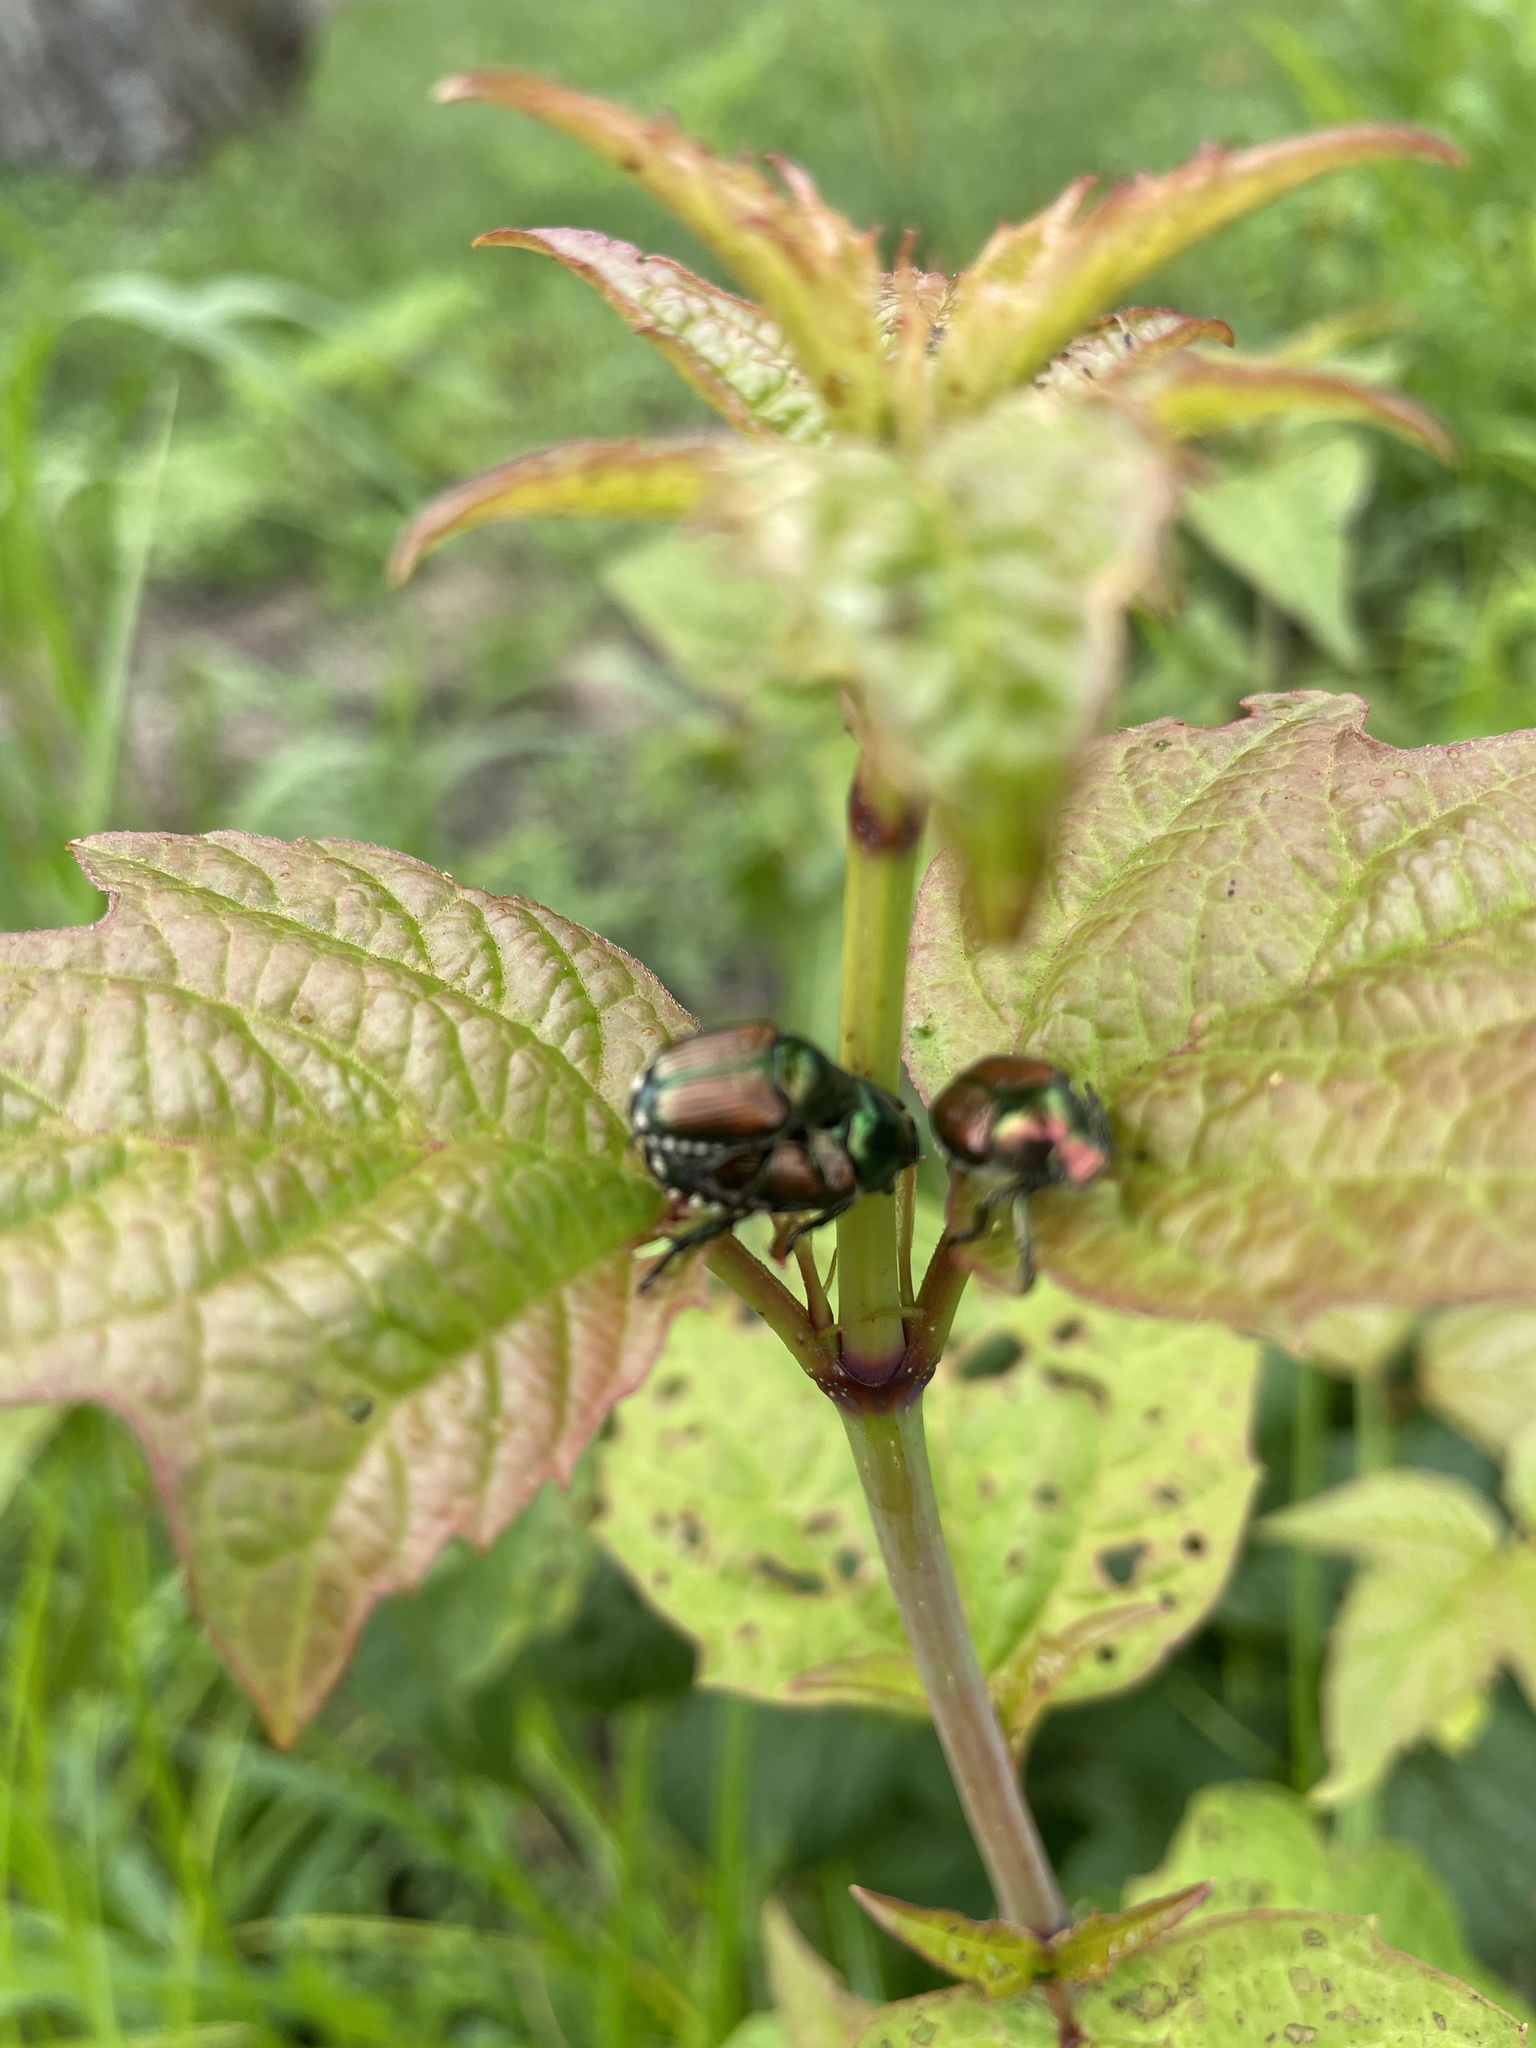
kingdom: Animalia
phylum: Arthropoda
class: Insecta
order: Coleoptera
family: Scarabaeidae
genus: Popillia
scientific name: Popillia japonica
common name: Japanese beetle
